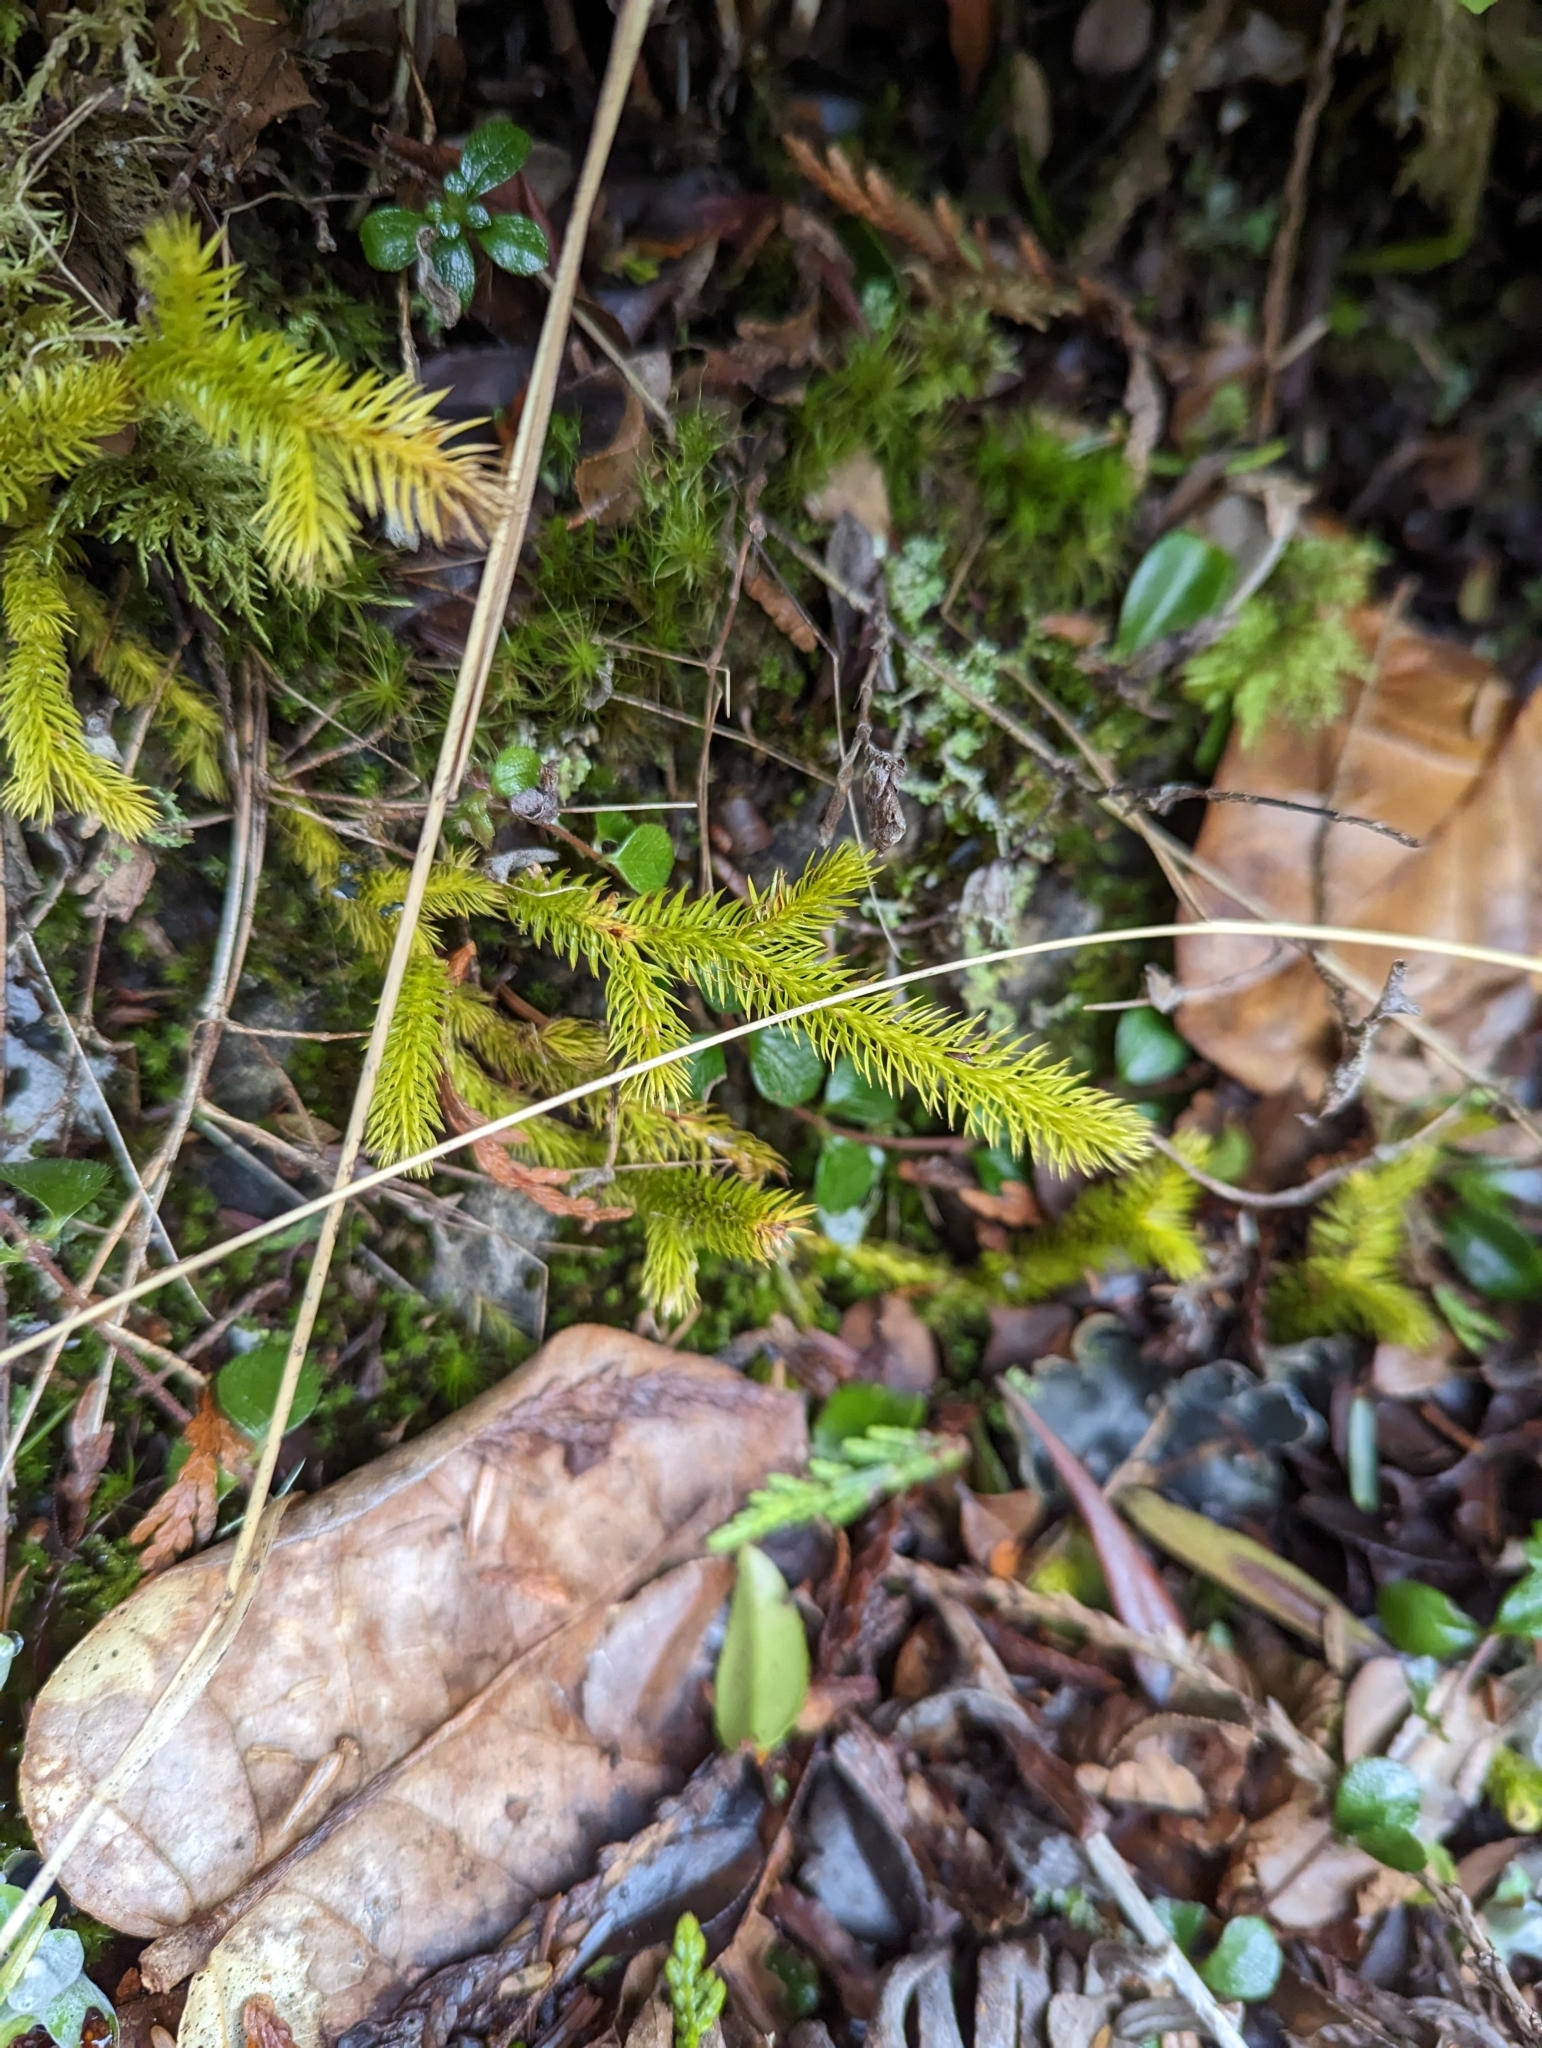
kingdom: Plantae
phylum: Tracheophyta
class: Lycopodiopsida
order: Lycopodiales
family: Lycopodiaceae
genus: Lycopodium
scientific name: Lycopodium clavatum
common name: Stag's-horn clubmoss
